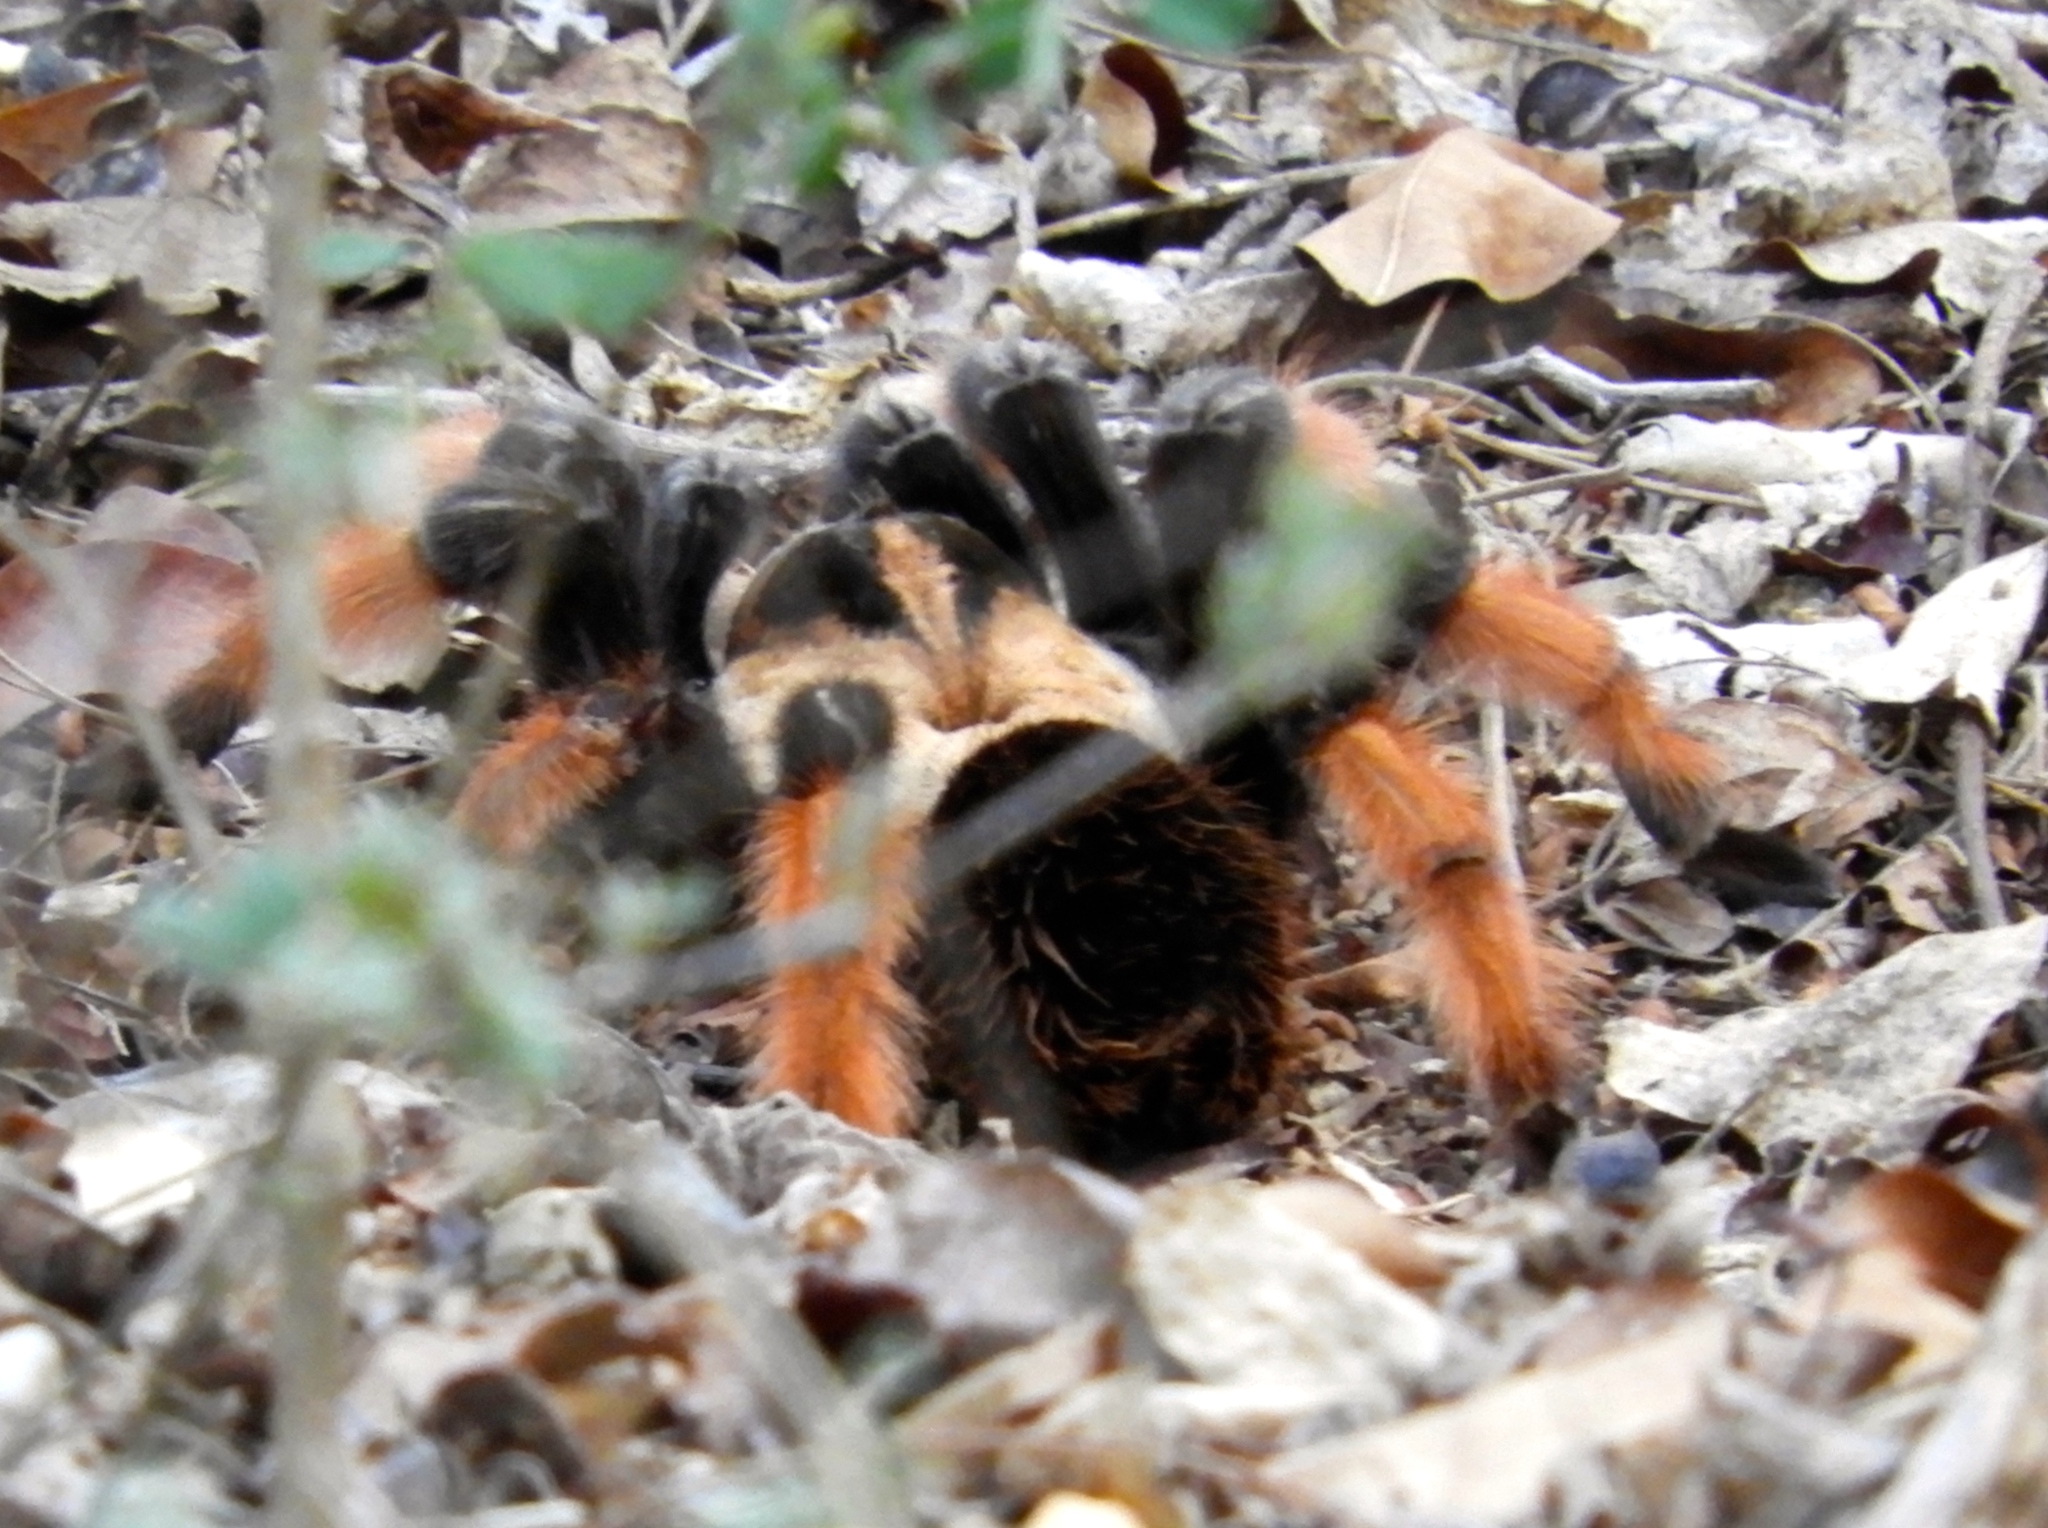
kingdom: Animalia
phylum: Arthropoda
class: Arachnida
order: Araneae
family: Theraphosidae
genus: Brachypelma
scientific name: Brachypelma emilia
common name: Mexican redleg
